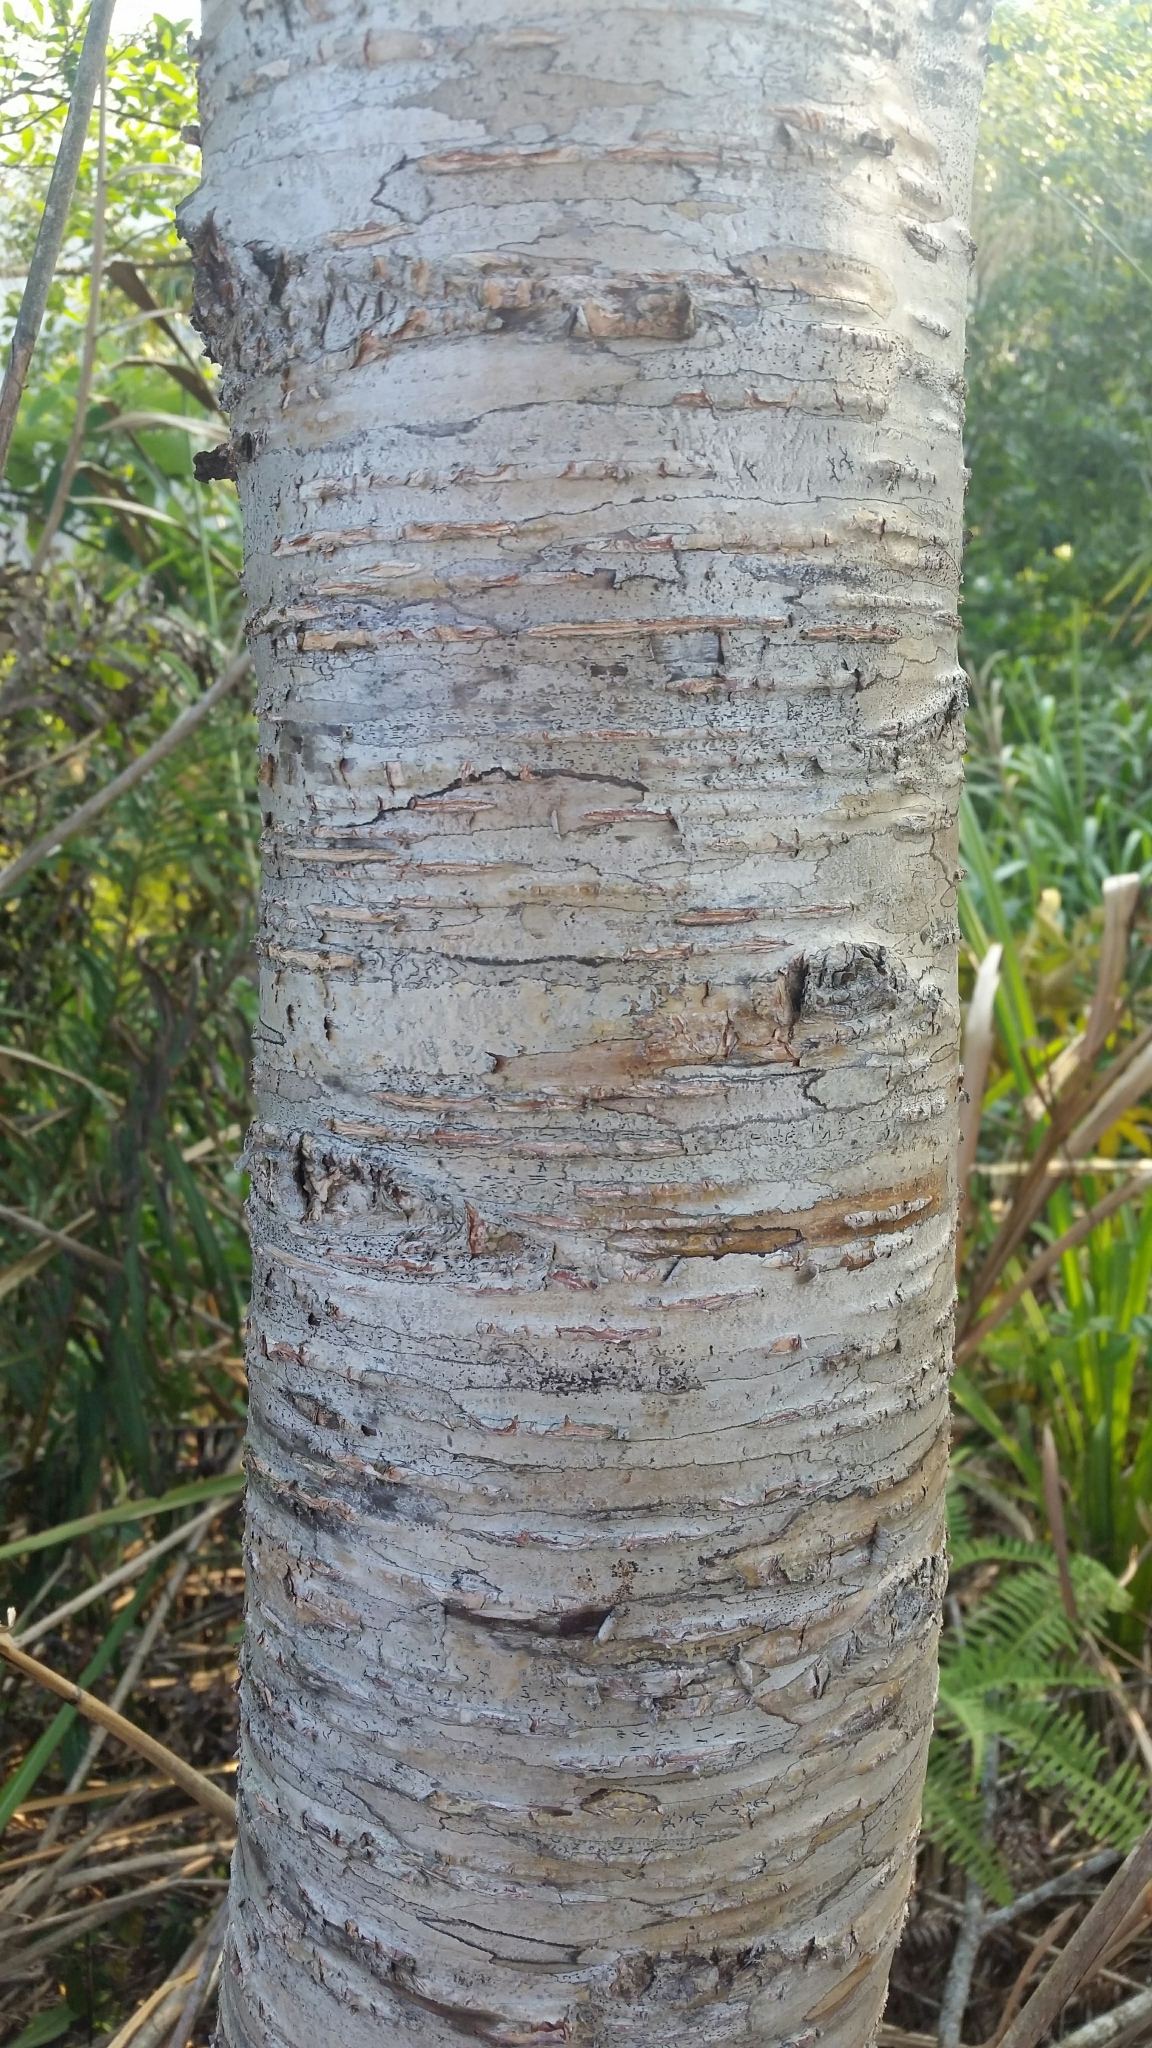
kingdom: Plantae
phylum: Tracheophyta
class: Magnoliopsida
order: Fagales
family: Betulaceae
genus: Betula
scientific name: Betula alnoides
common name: Indian birch
